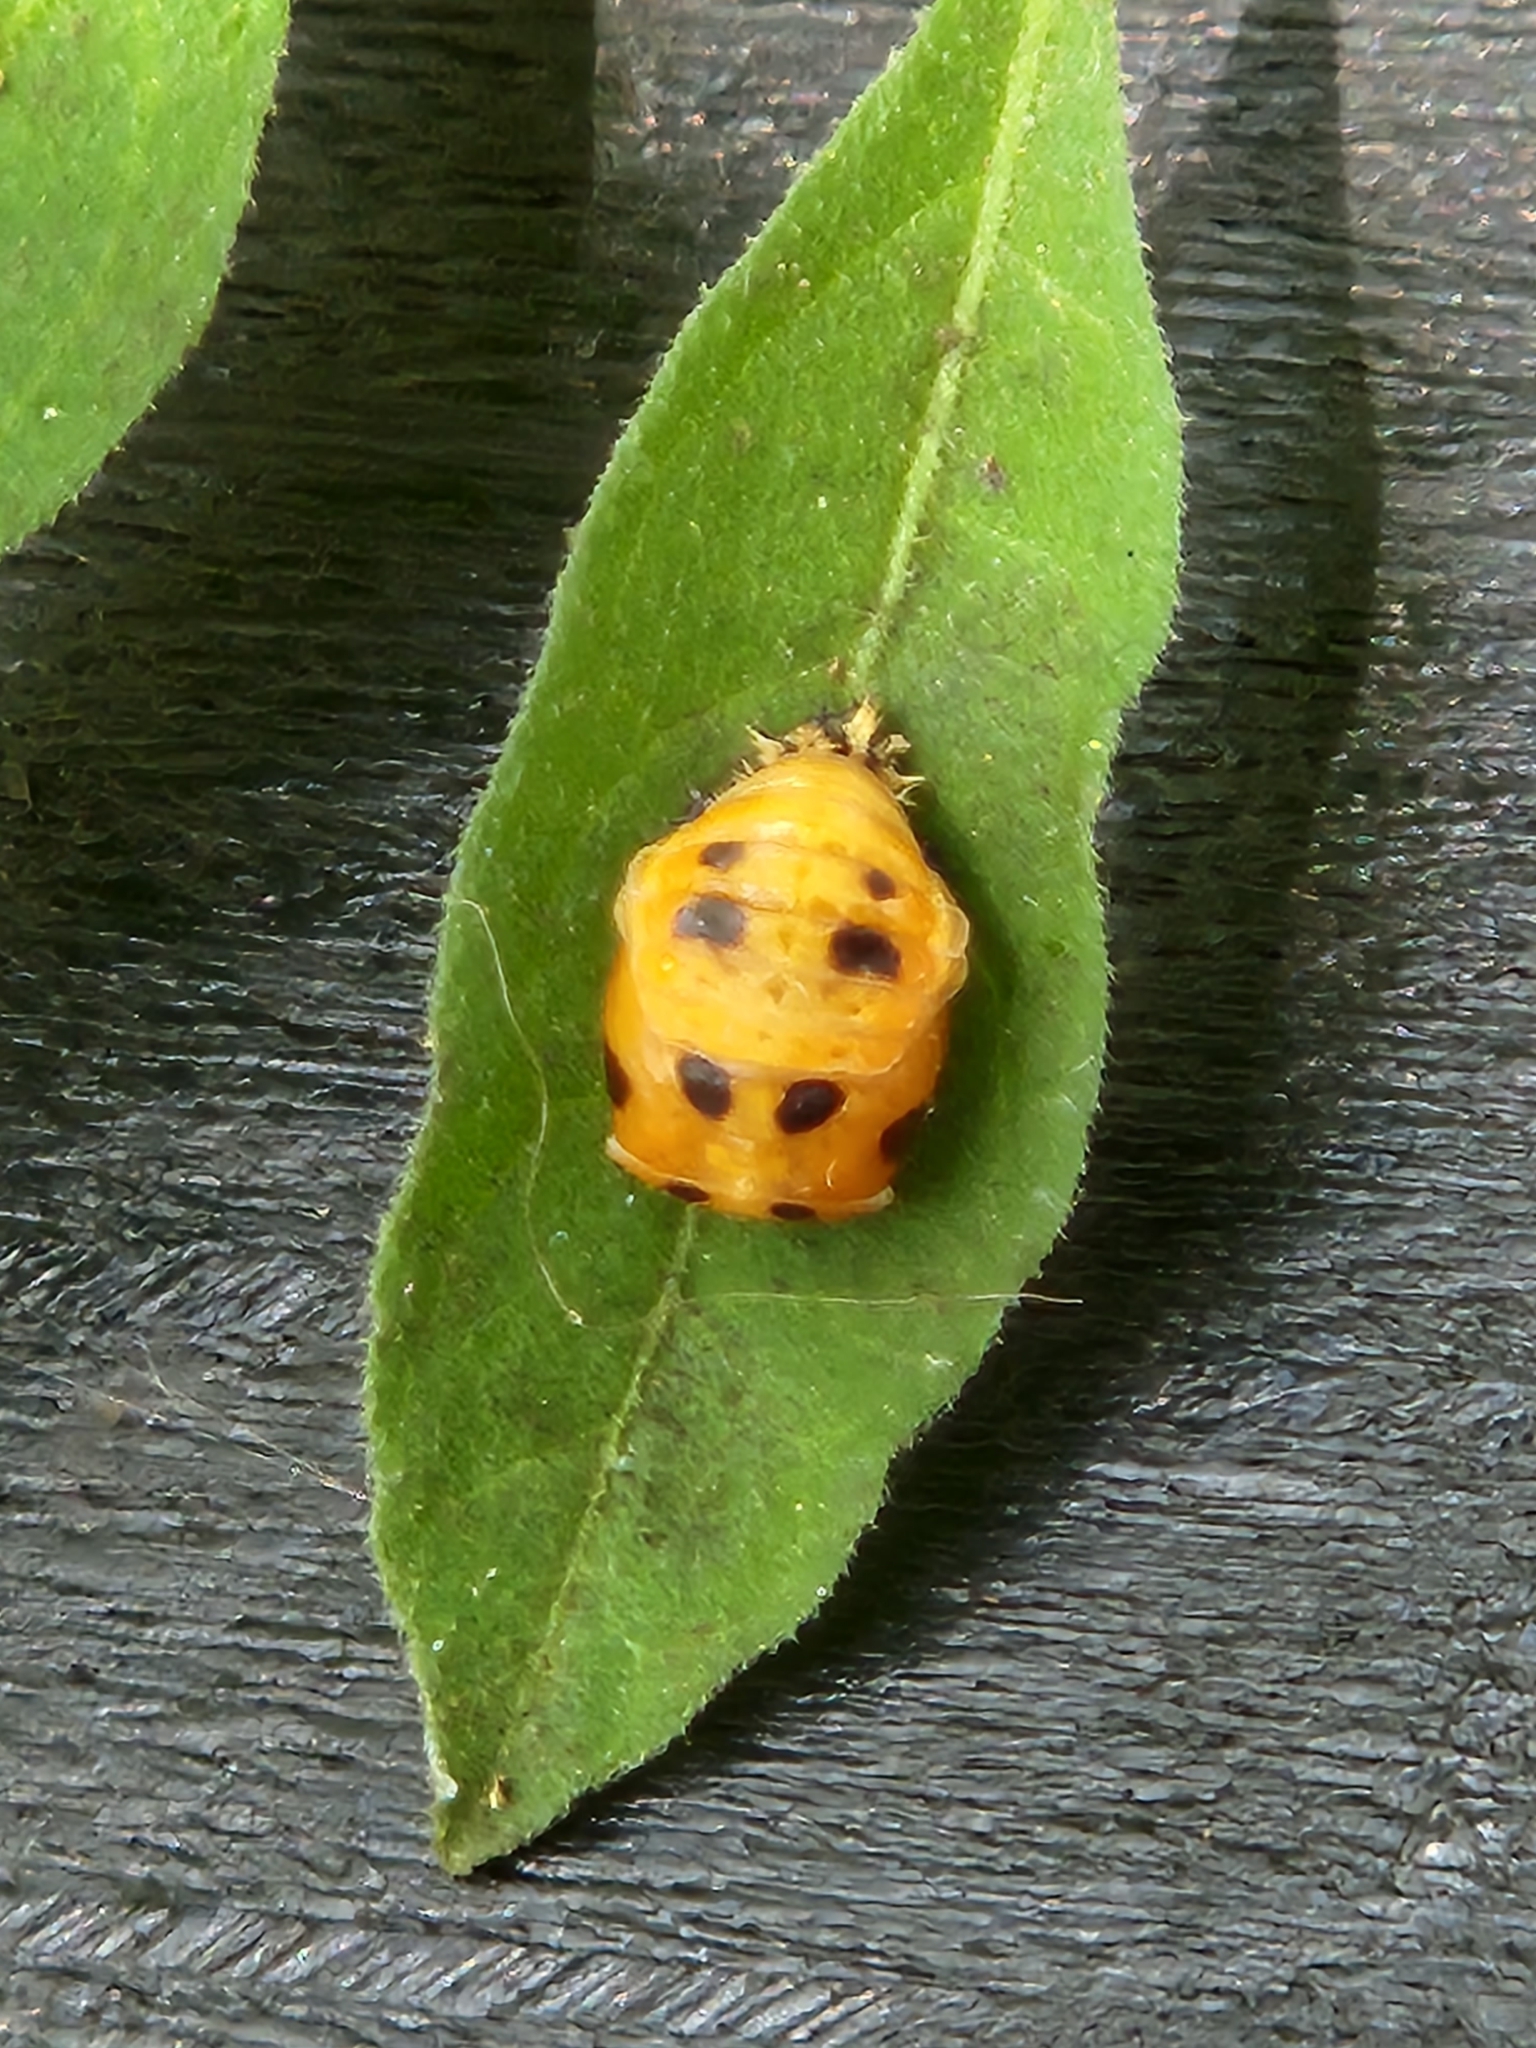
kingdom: Animalia
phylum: Arthropoda
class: Insecta
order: Coleoptera
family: Coccinellidae
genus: Harmonia
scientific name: Harmonia axyridis
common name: Harlequin ladybird
